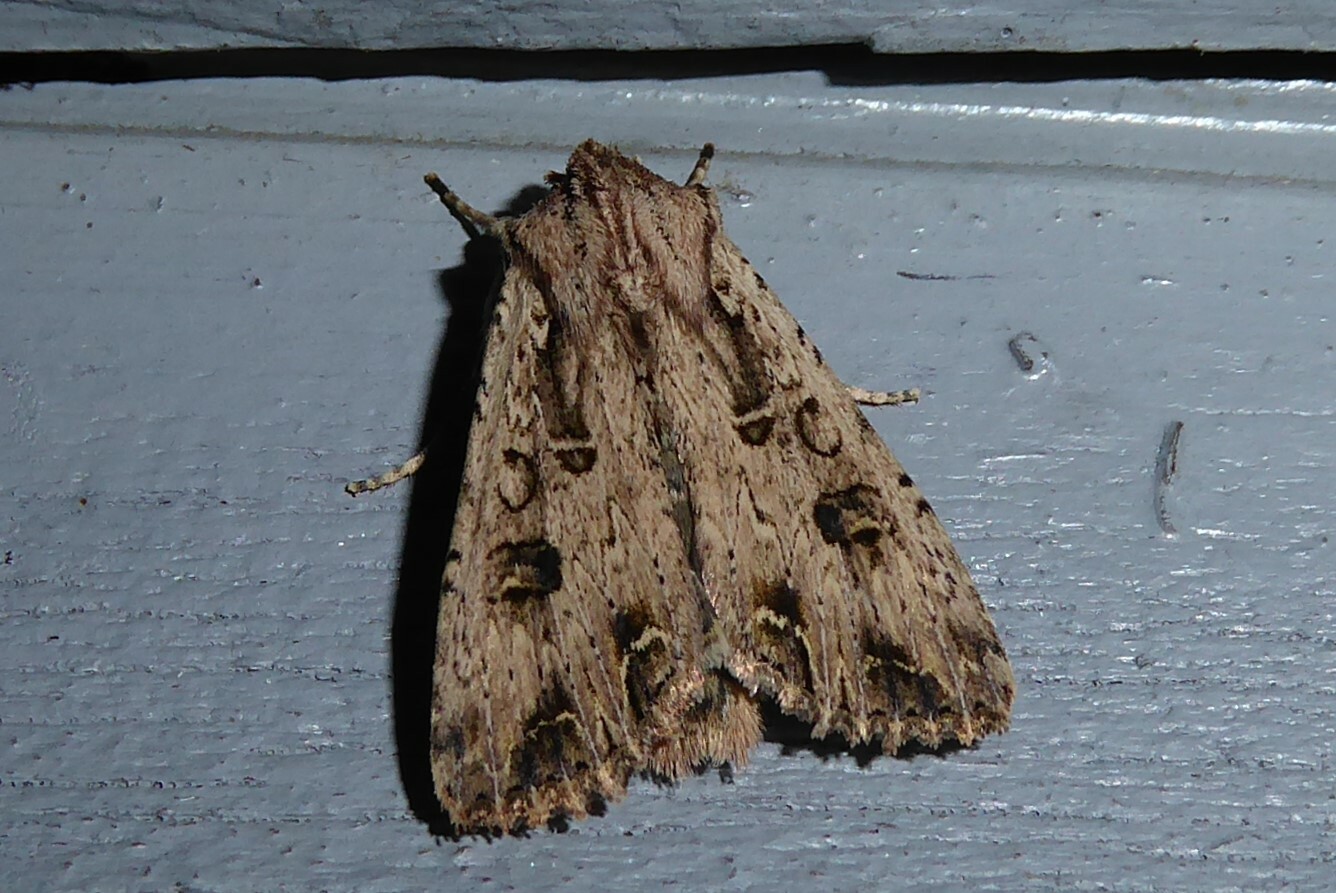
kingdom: Animalia
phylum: Arthropoda
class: Insecta
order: Lepidoptera
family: Noctuidae
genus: Ichneutica
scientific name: Ichneutica lignana
